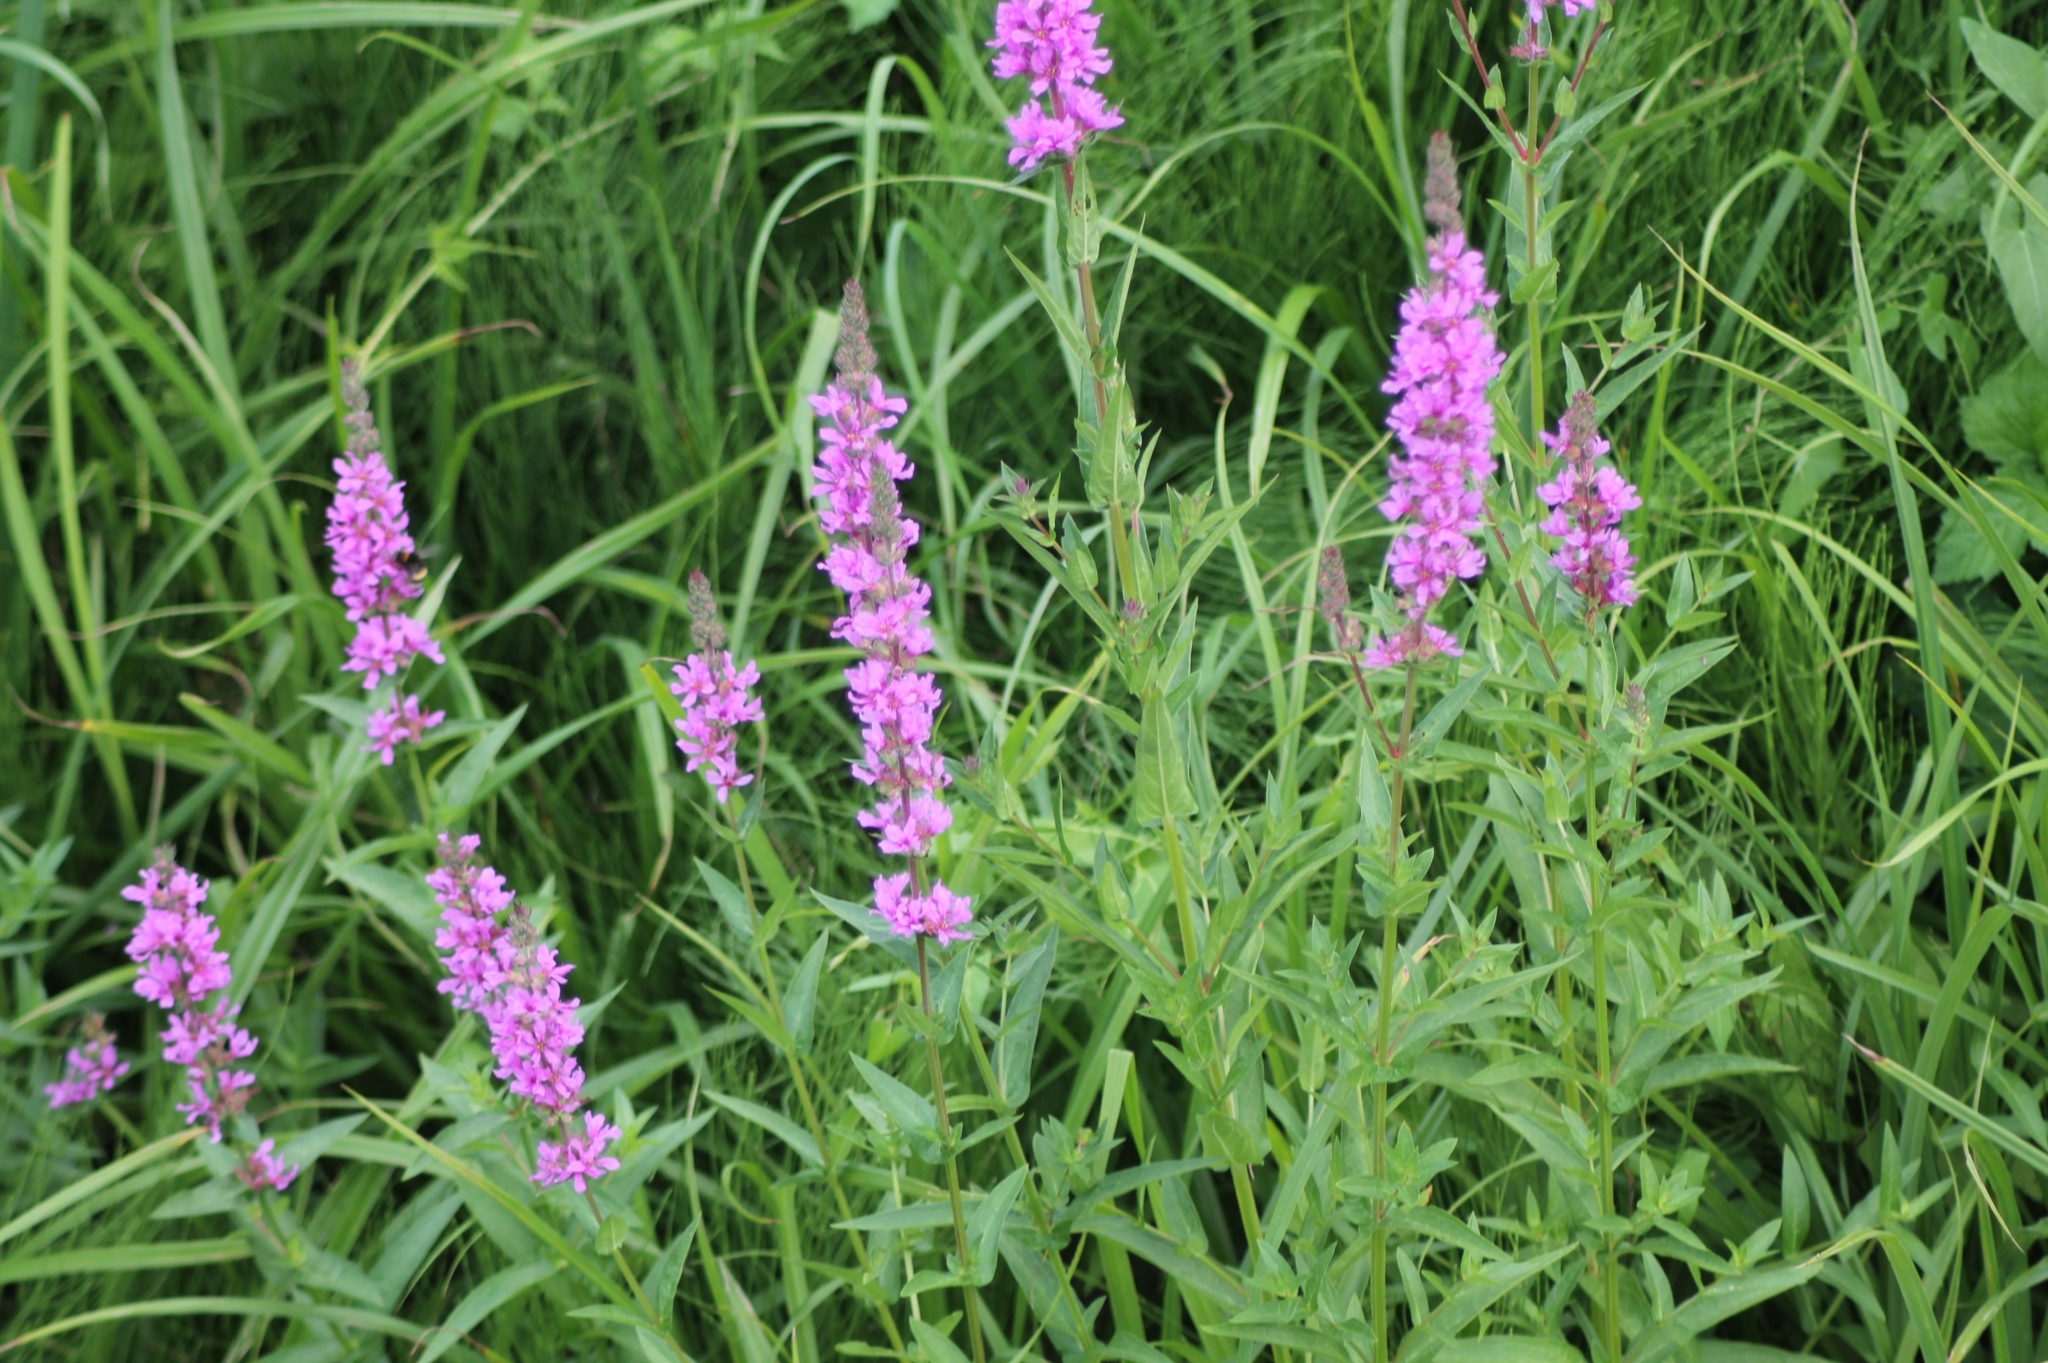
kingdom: Plantae
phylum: Tracheophyta
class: Magnoliopsida
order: Myrtales
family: Lythraceae
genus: Lythrum
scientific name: Lythrum salicaria
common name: Purple loosestrife
